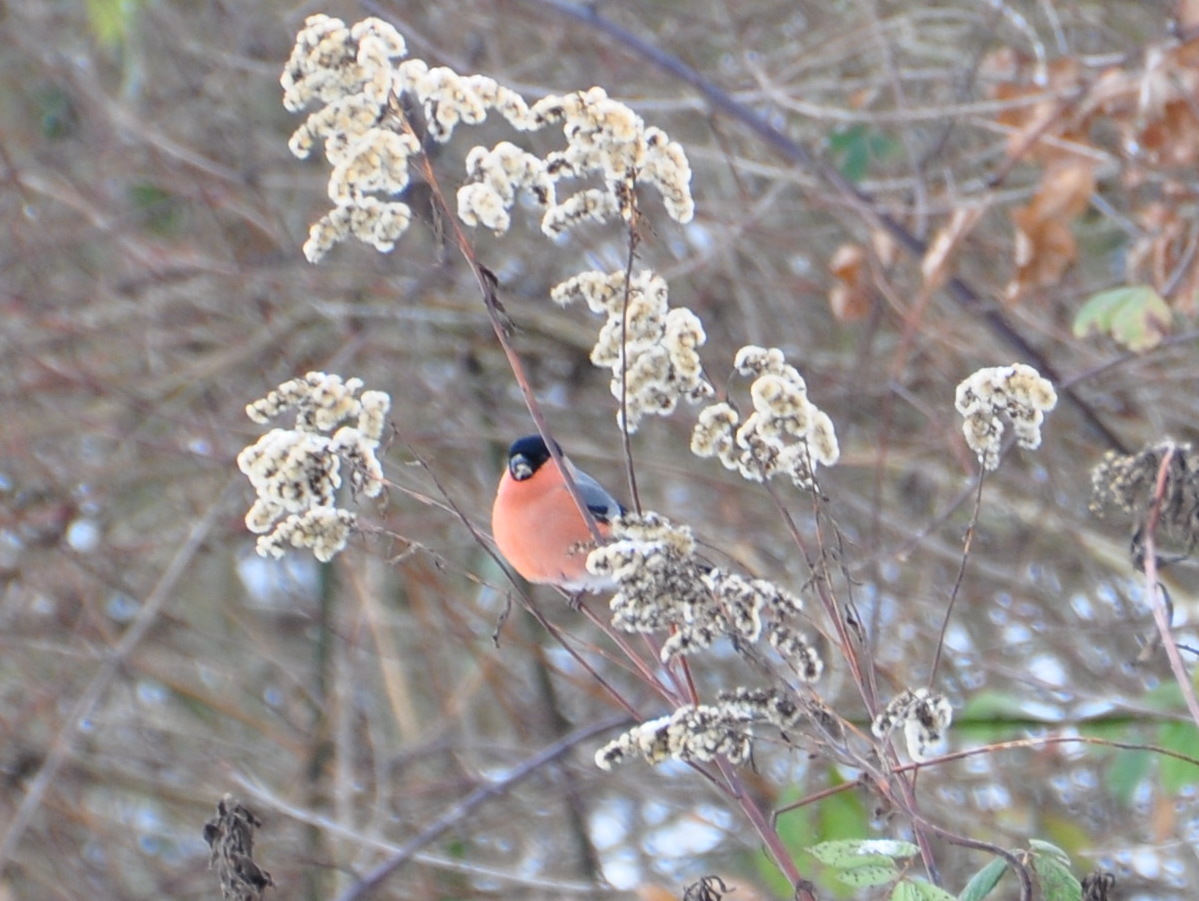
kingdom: Animalia
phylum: Chordata
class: Aves
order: Passeriformes
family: Fringillidae
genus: Pyrrhula
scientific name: Pyrrhula pyrrhula
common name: Eurasian bullfinch
